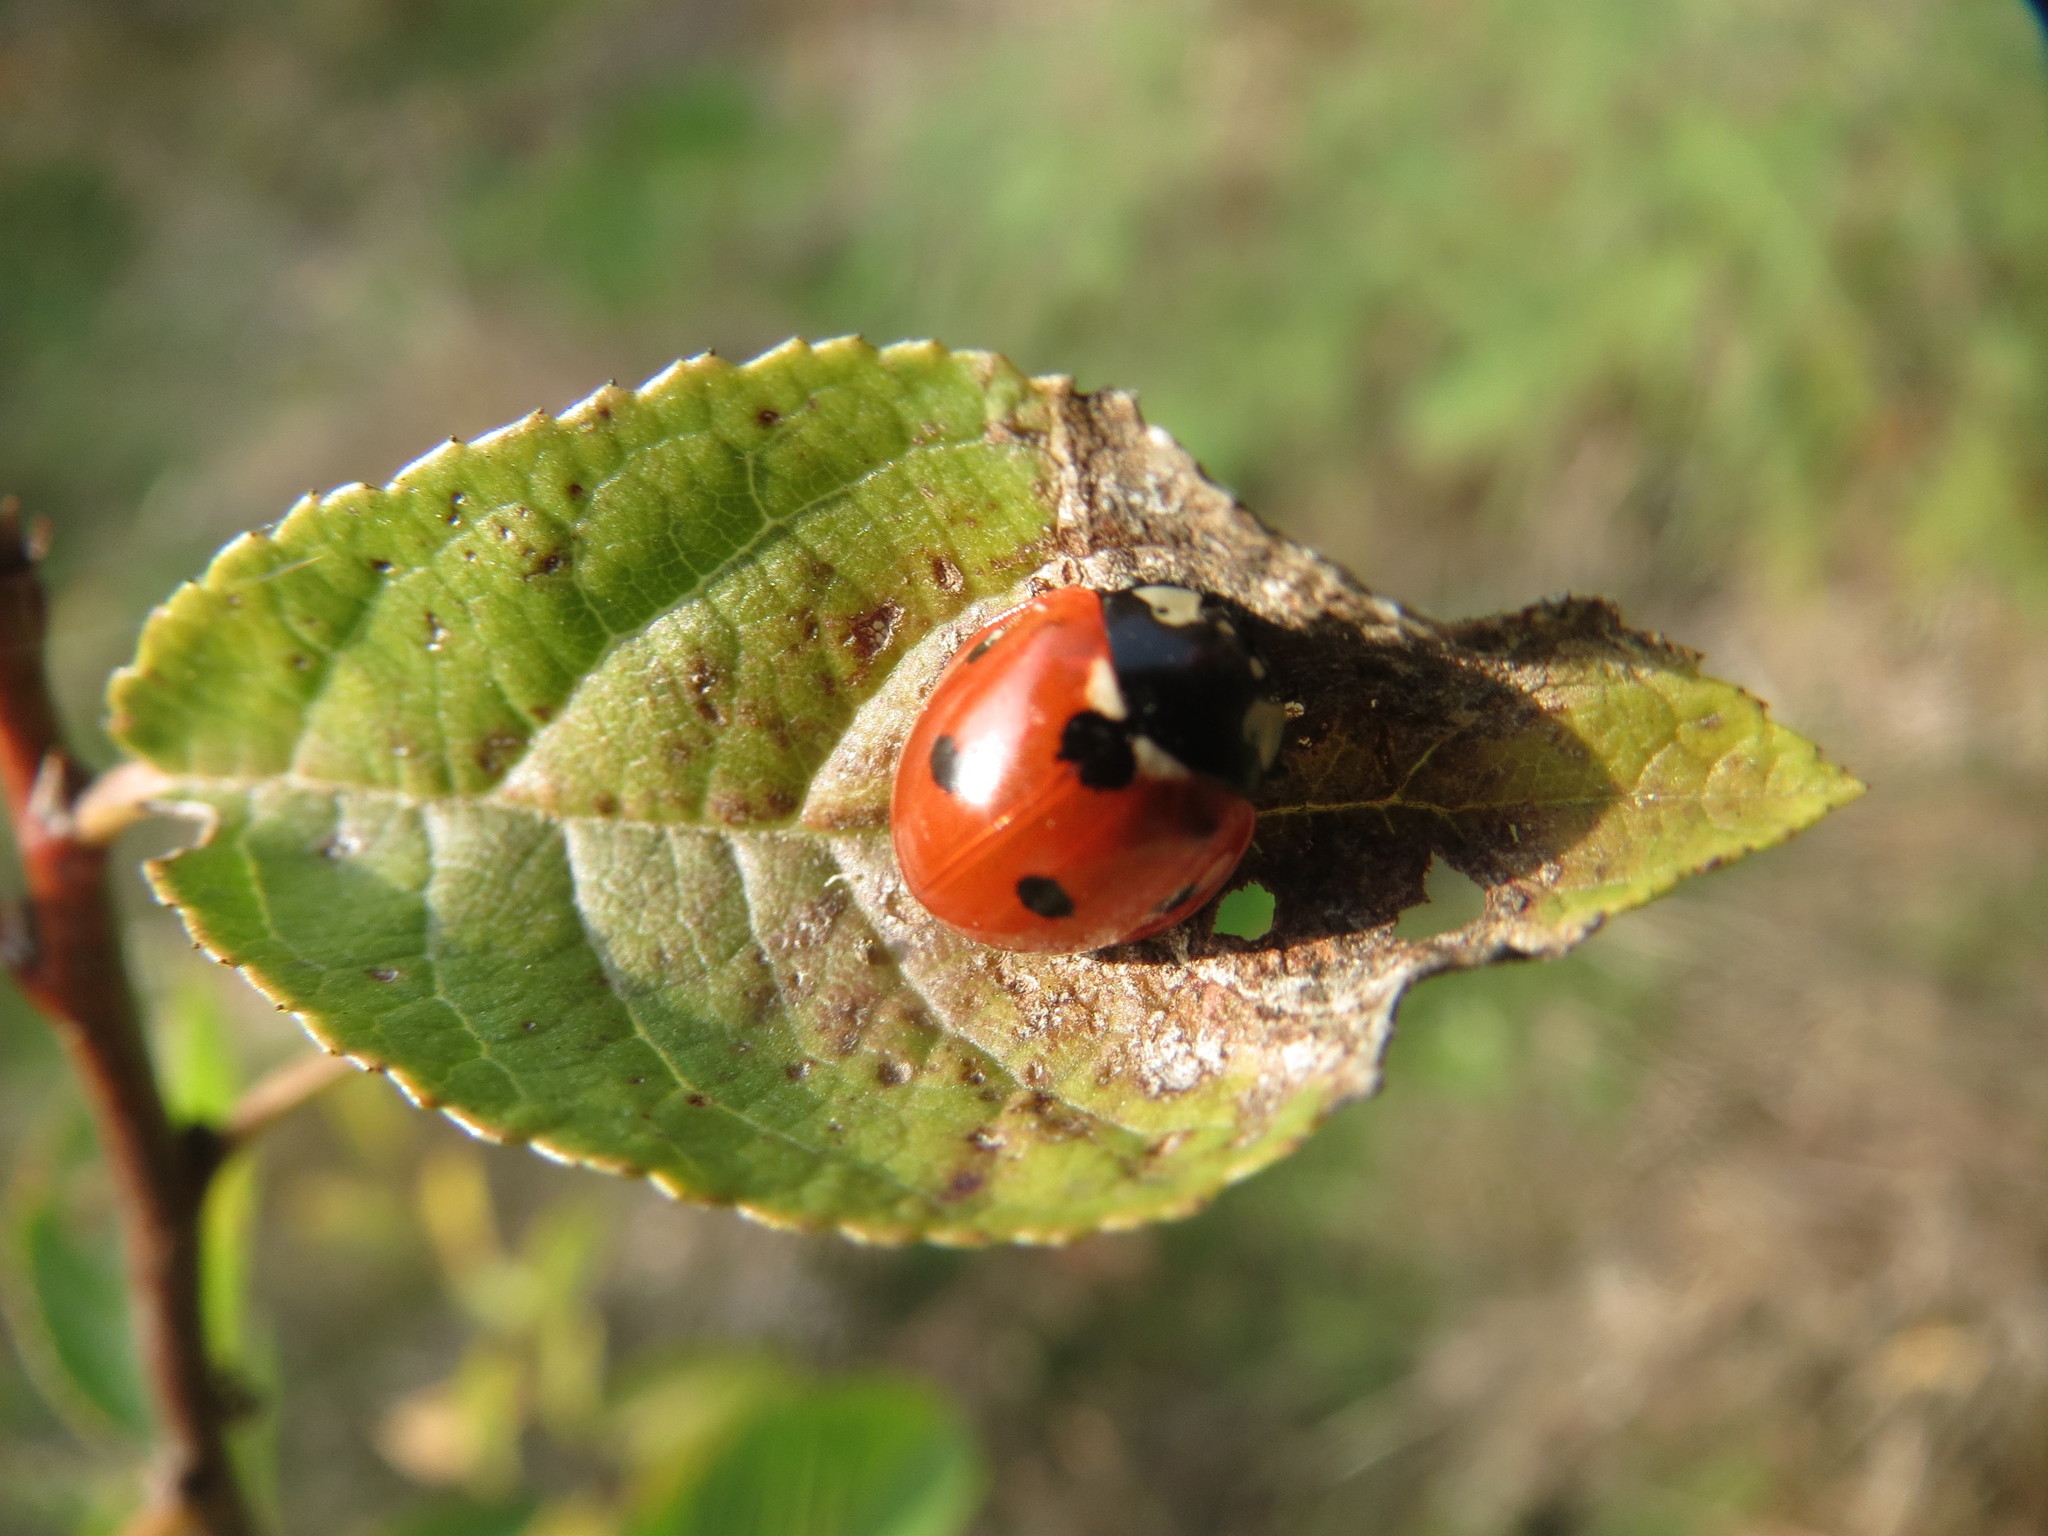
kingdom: Animalia
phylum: Arthropoda
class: Insecta
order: Coleoptera
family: Coccinellidae
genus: Coccinella
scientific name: Coccinella septempunctata
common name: Sevenspotted lady beetle
